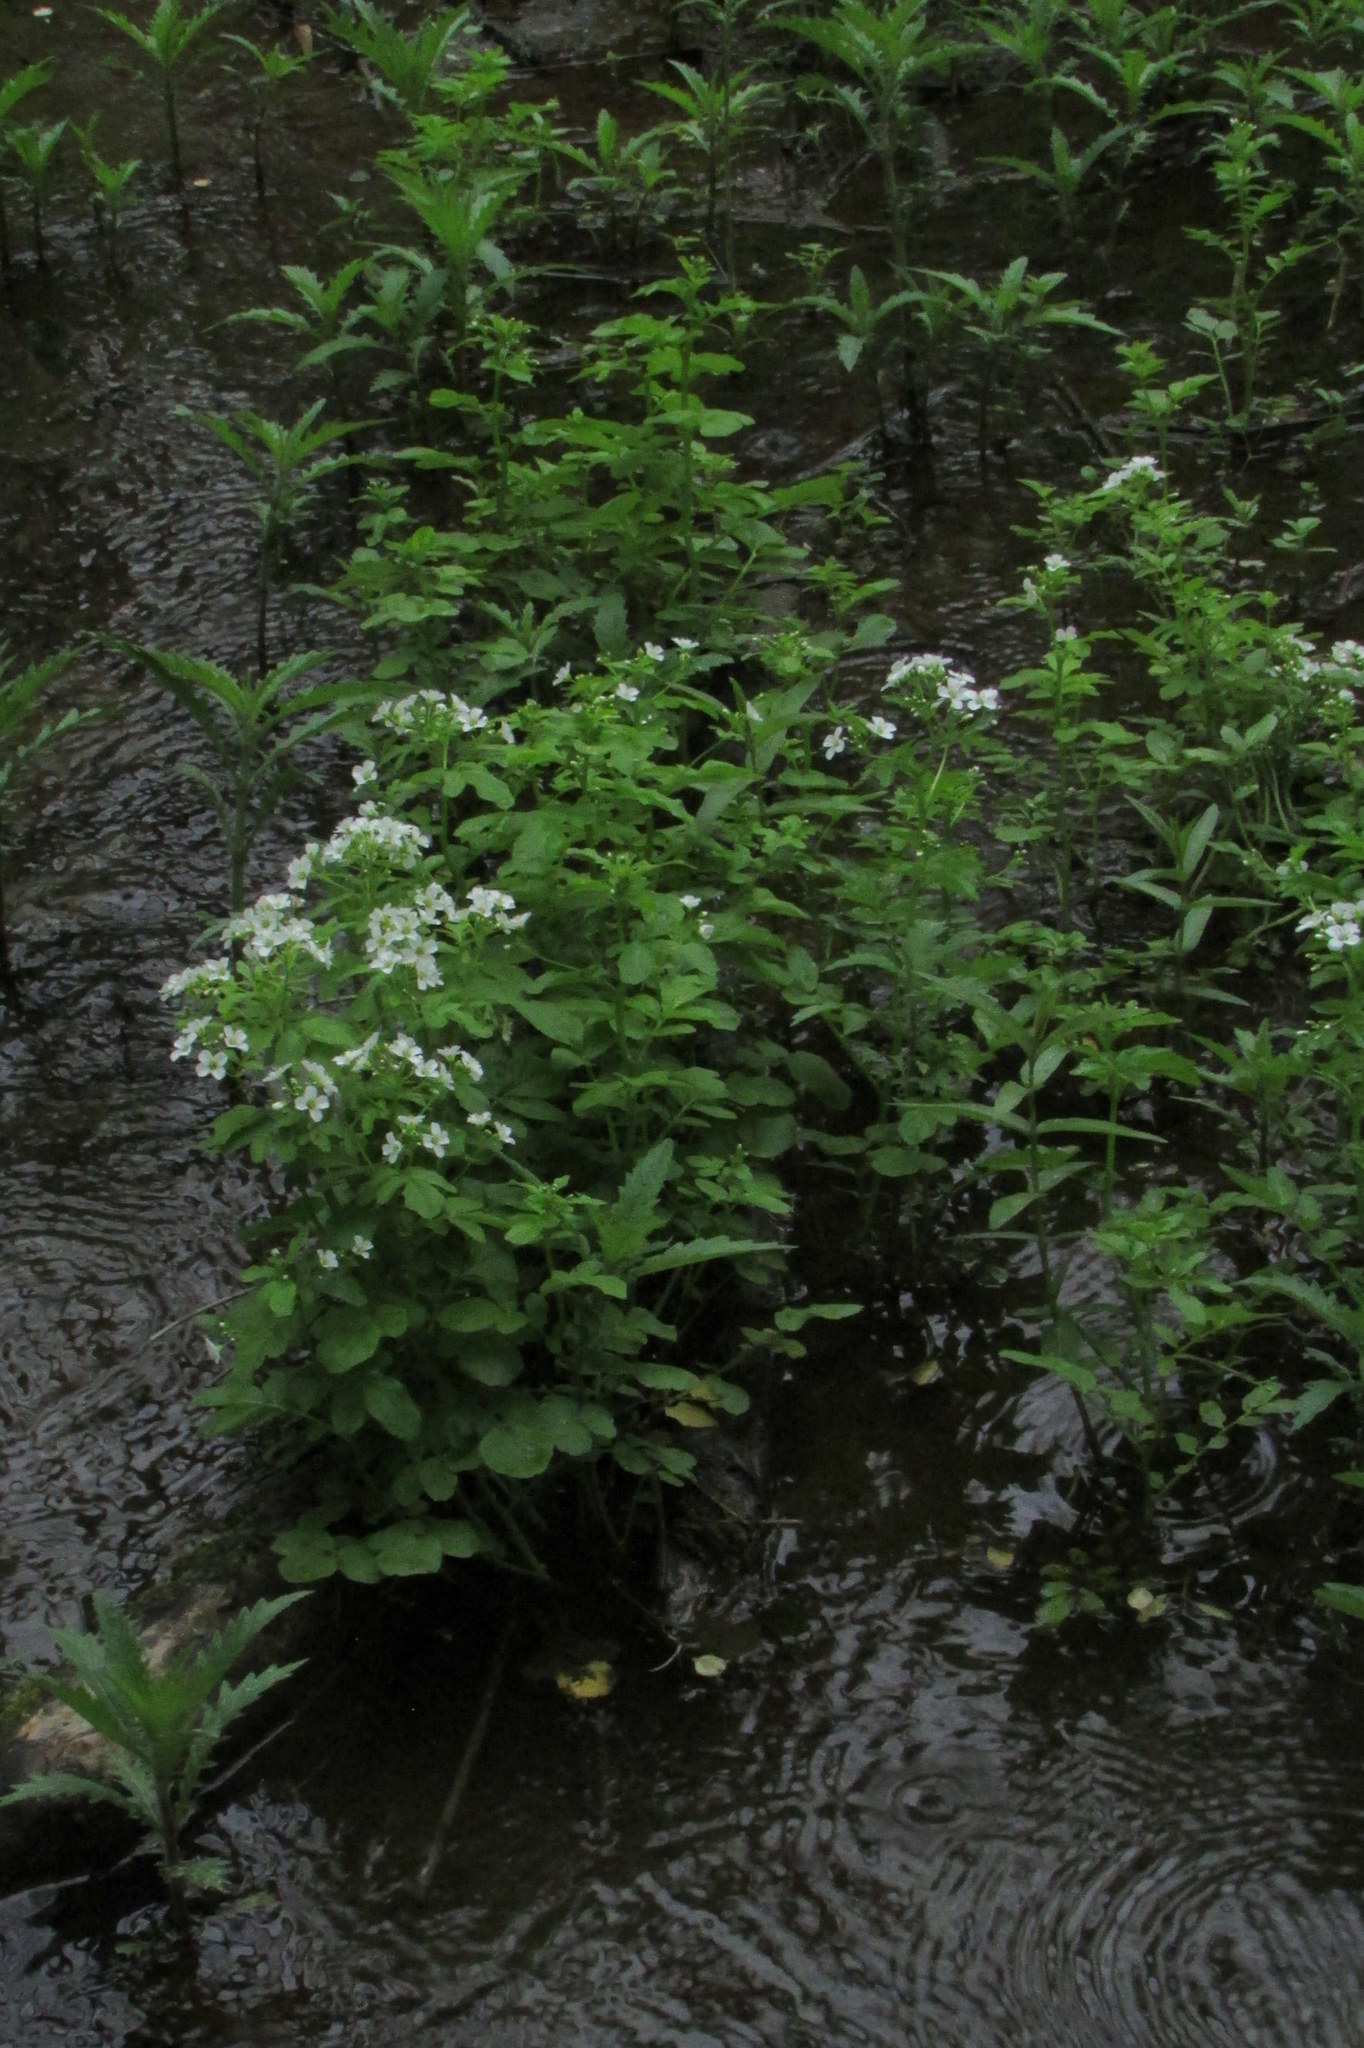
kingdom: Plantae
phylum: Tracheophyta
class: Magnoliopsida
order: Brassicales
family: Brassicaceae
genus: Cardamine
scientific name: Cardamine amara
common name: Large bitter-cress
